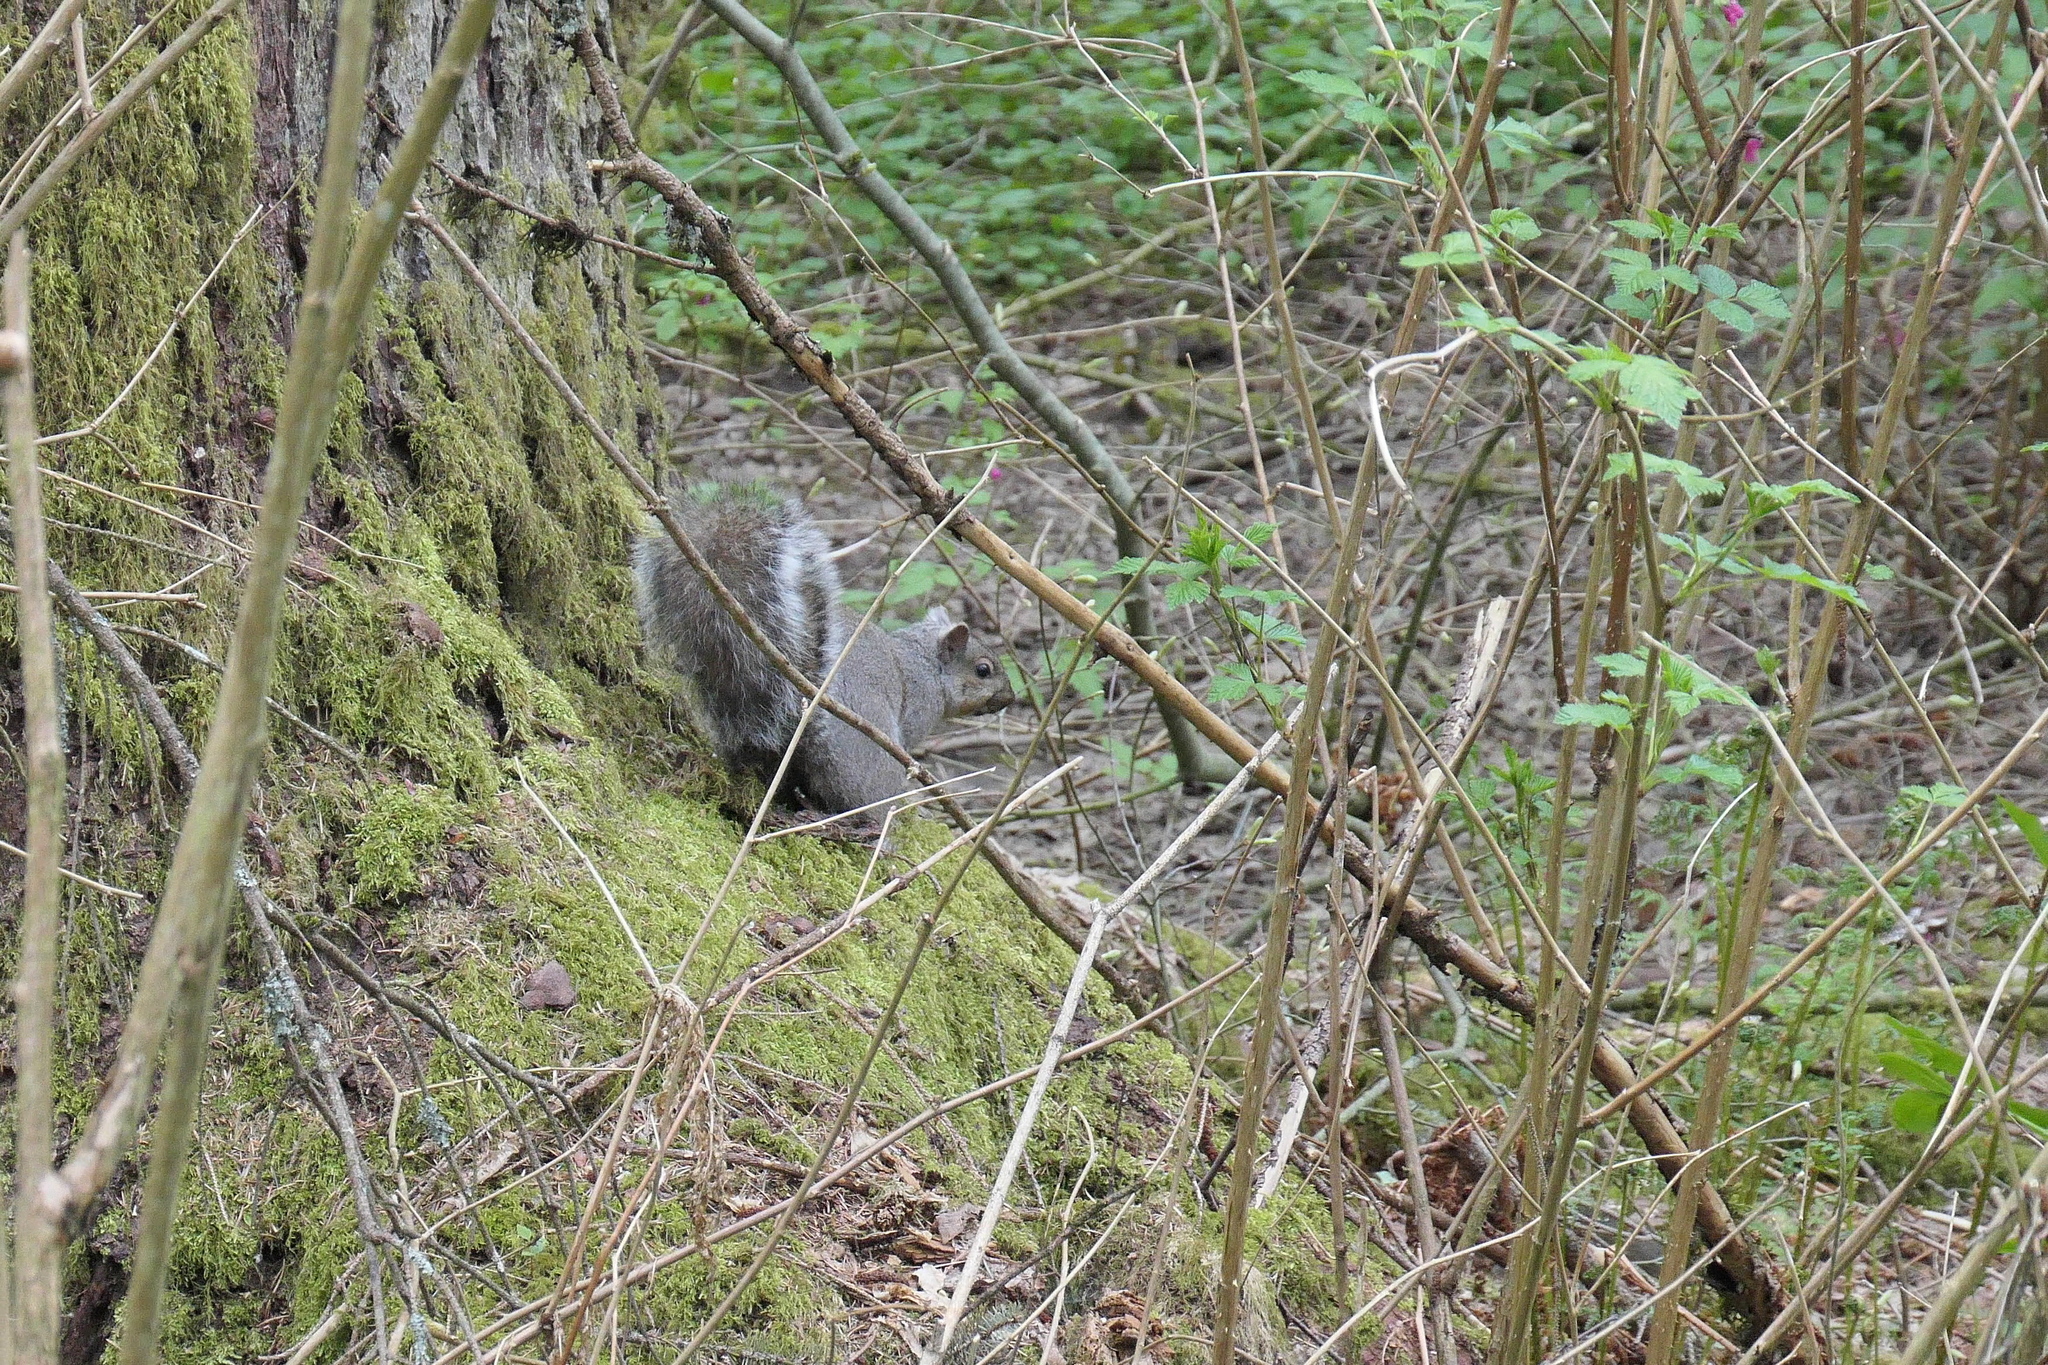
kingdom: Animalia
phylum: Chordata
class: Mammalia
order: Rodentia
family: Sciuridae
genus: Sciurus
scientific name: Sciurus carolinensis
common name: Eastern gray squirrel
